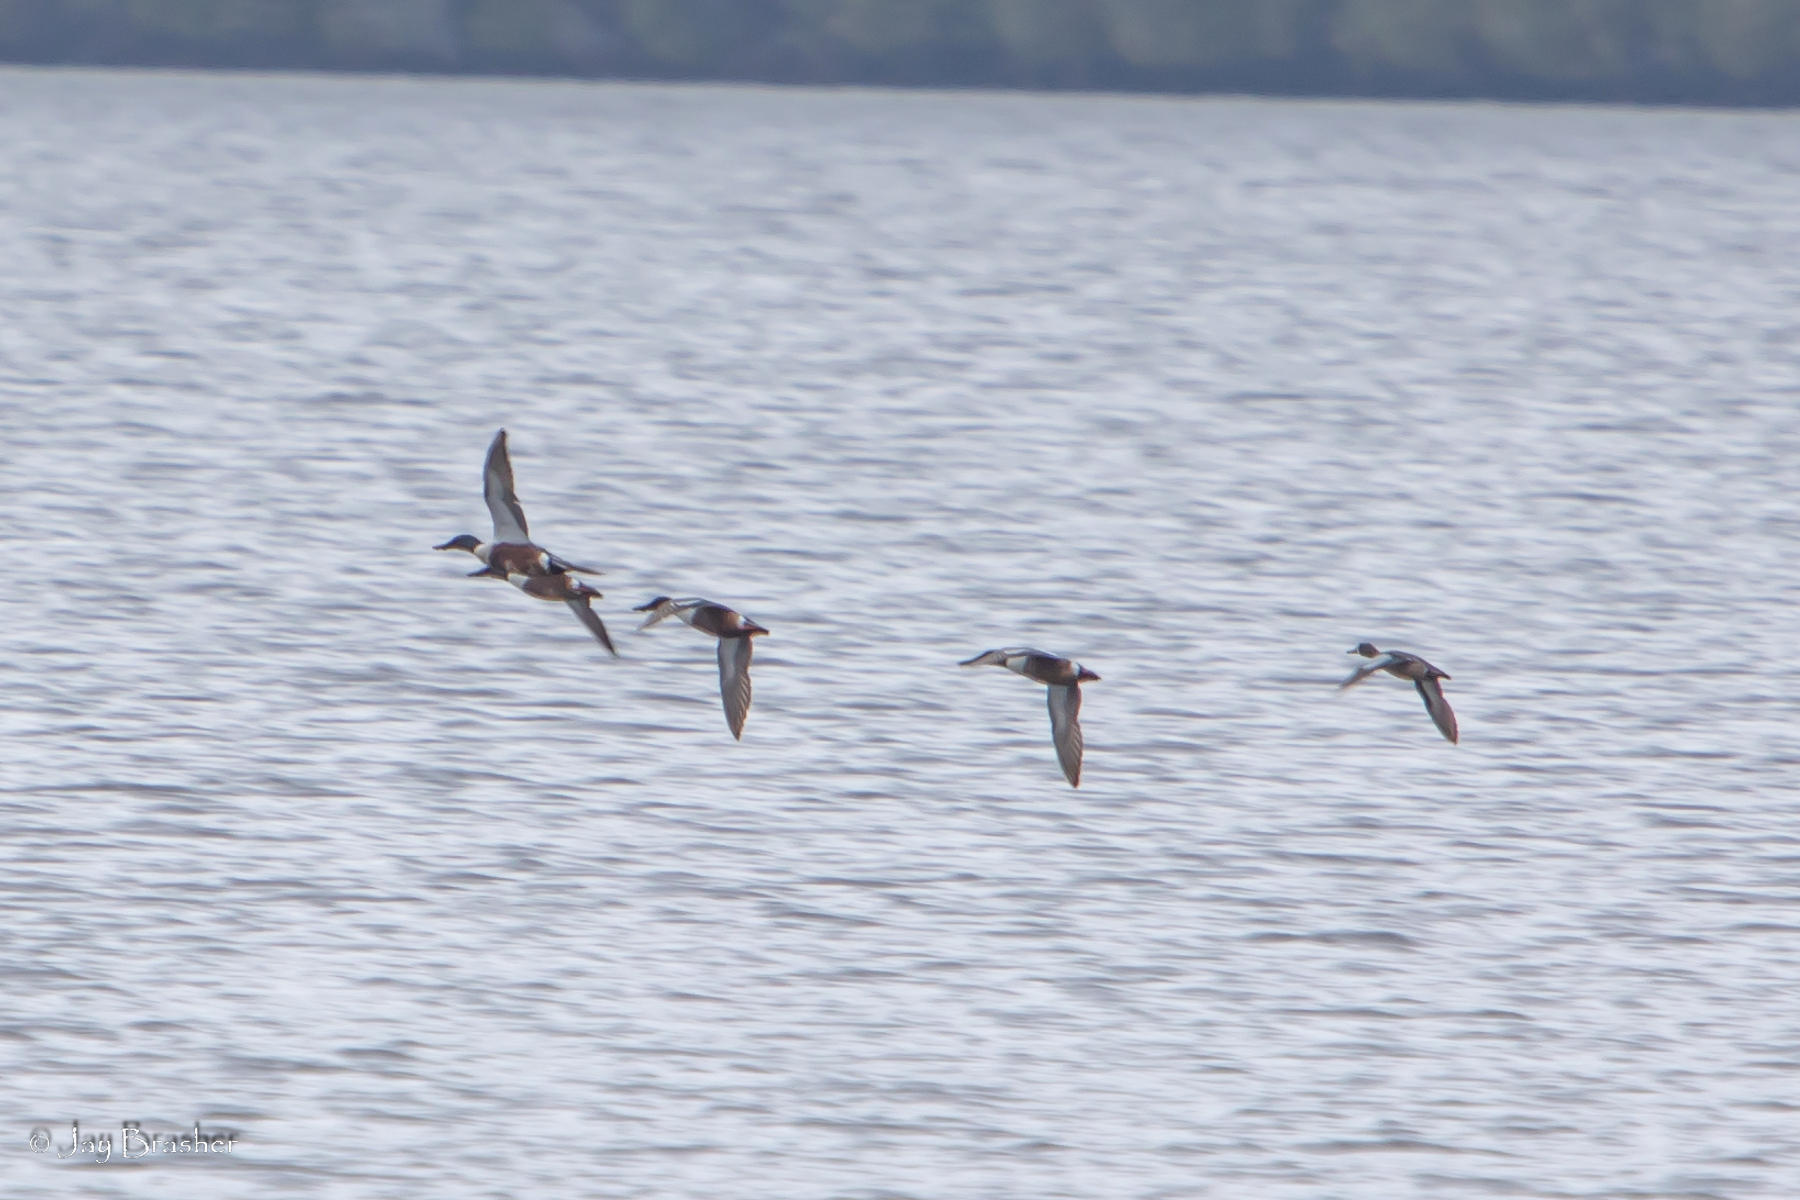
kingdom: Animalia
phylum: Chordata
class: Aves
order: Anseriformes
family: Anatidae
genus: Spatula
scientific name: Spatula discors
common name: Blue-winged teal
